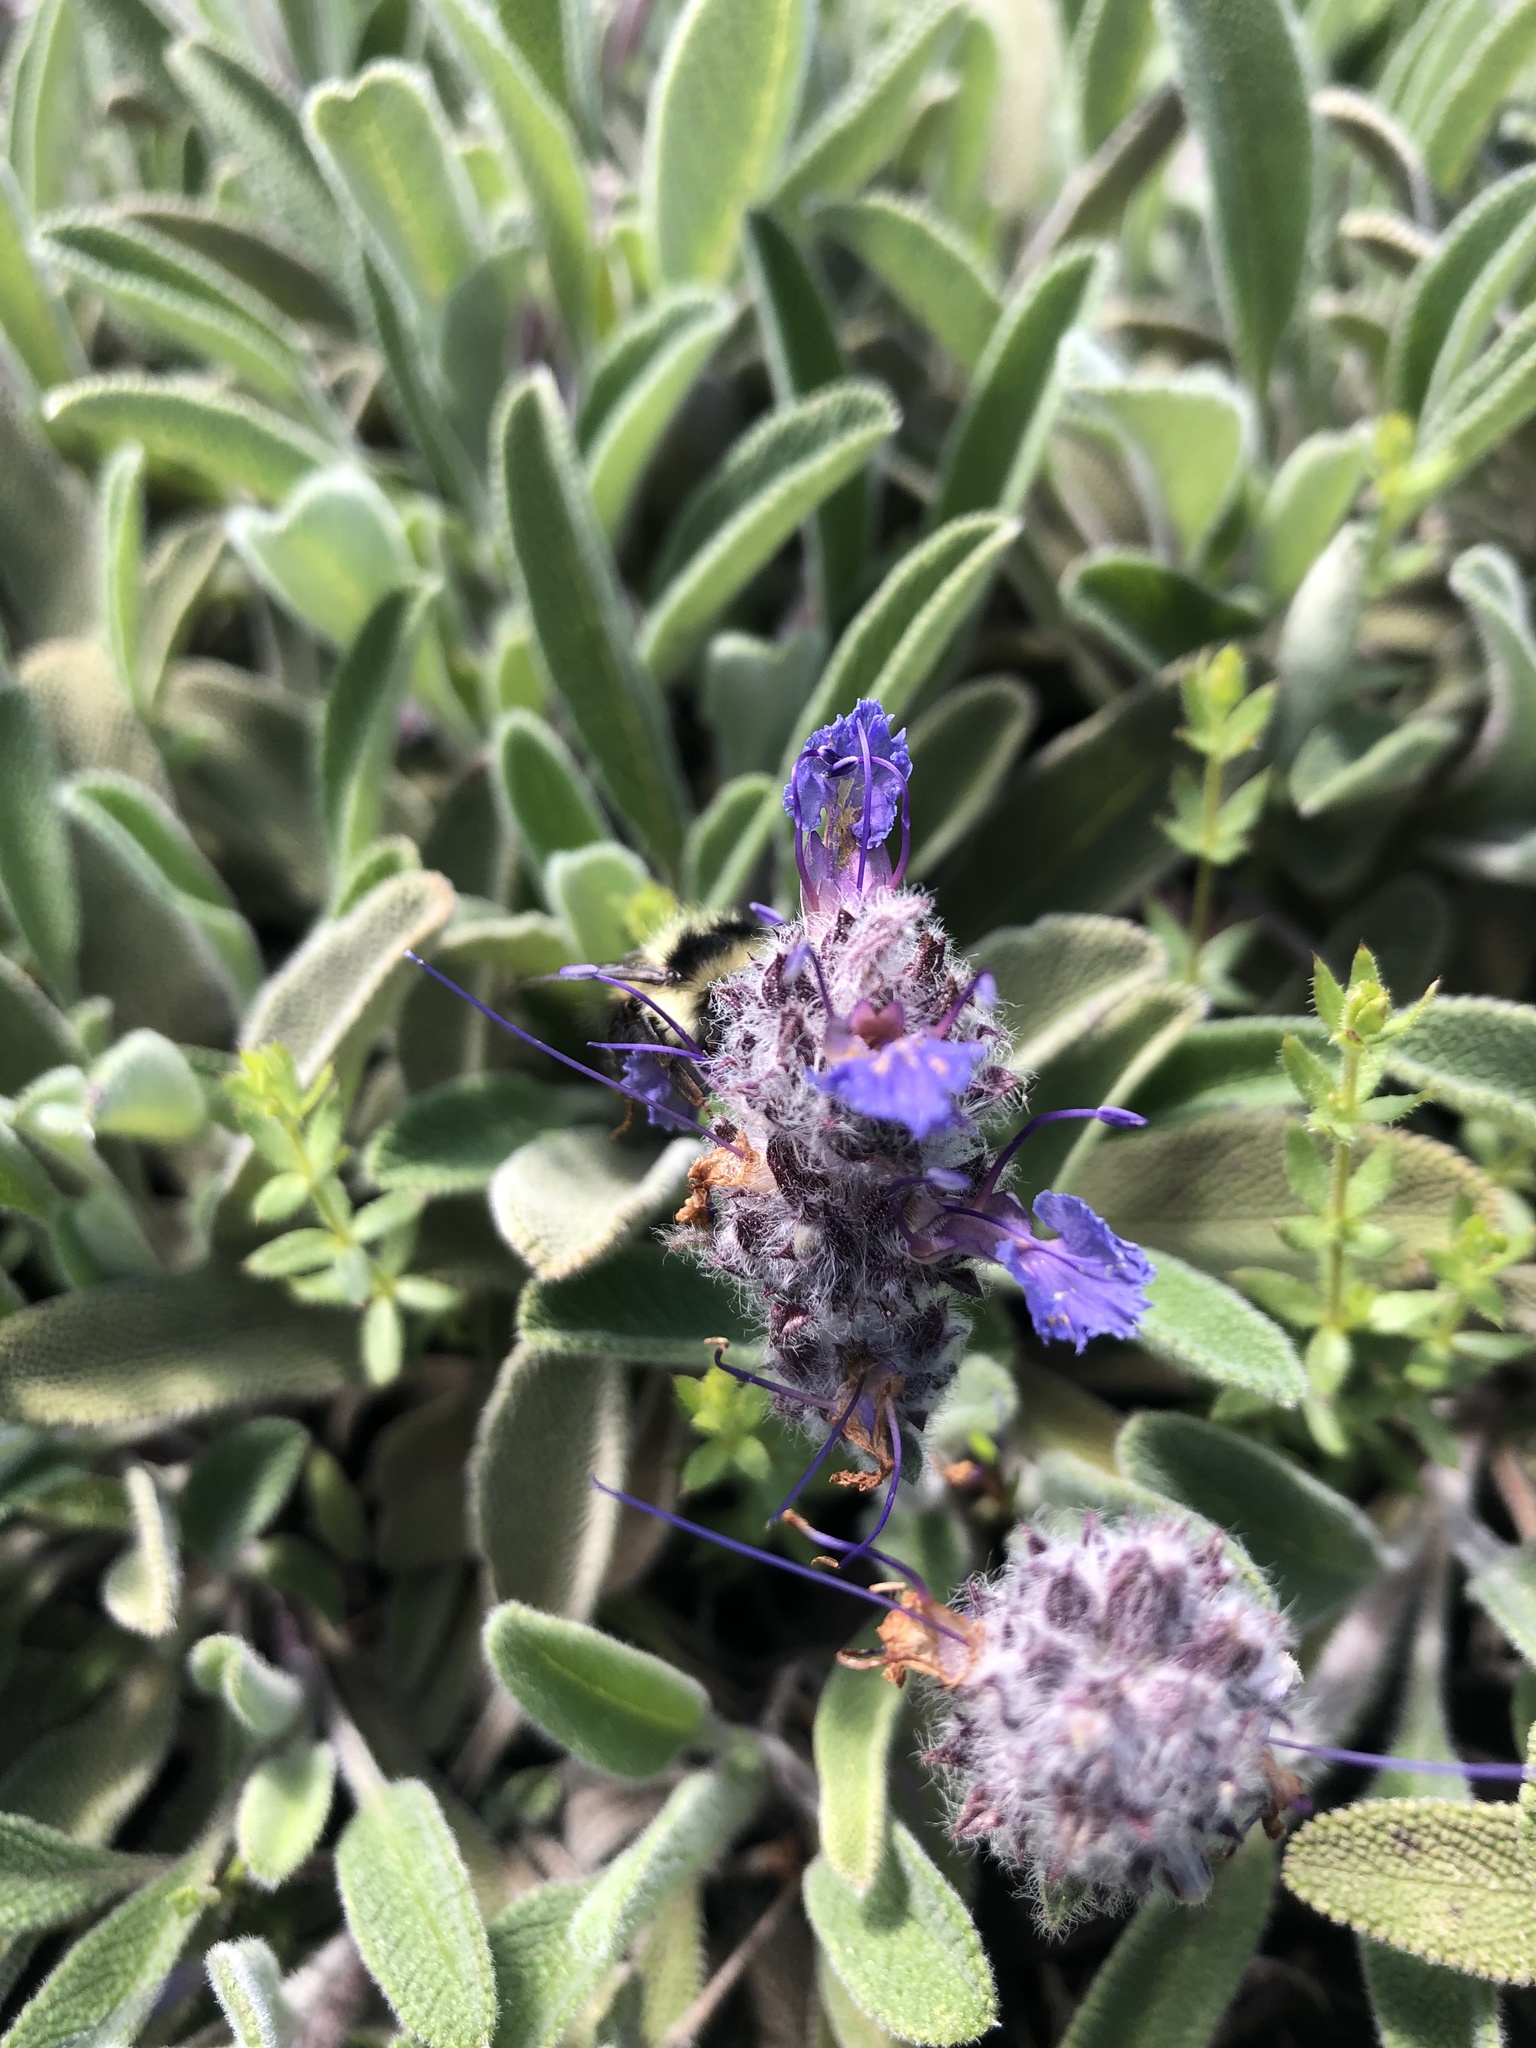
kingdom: Plantae
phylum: Tracheophyta
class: Magnoliopsida
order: Lamiales
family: Lamiaceae
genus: Salvia
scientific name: Salvia sonomensis
